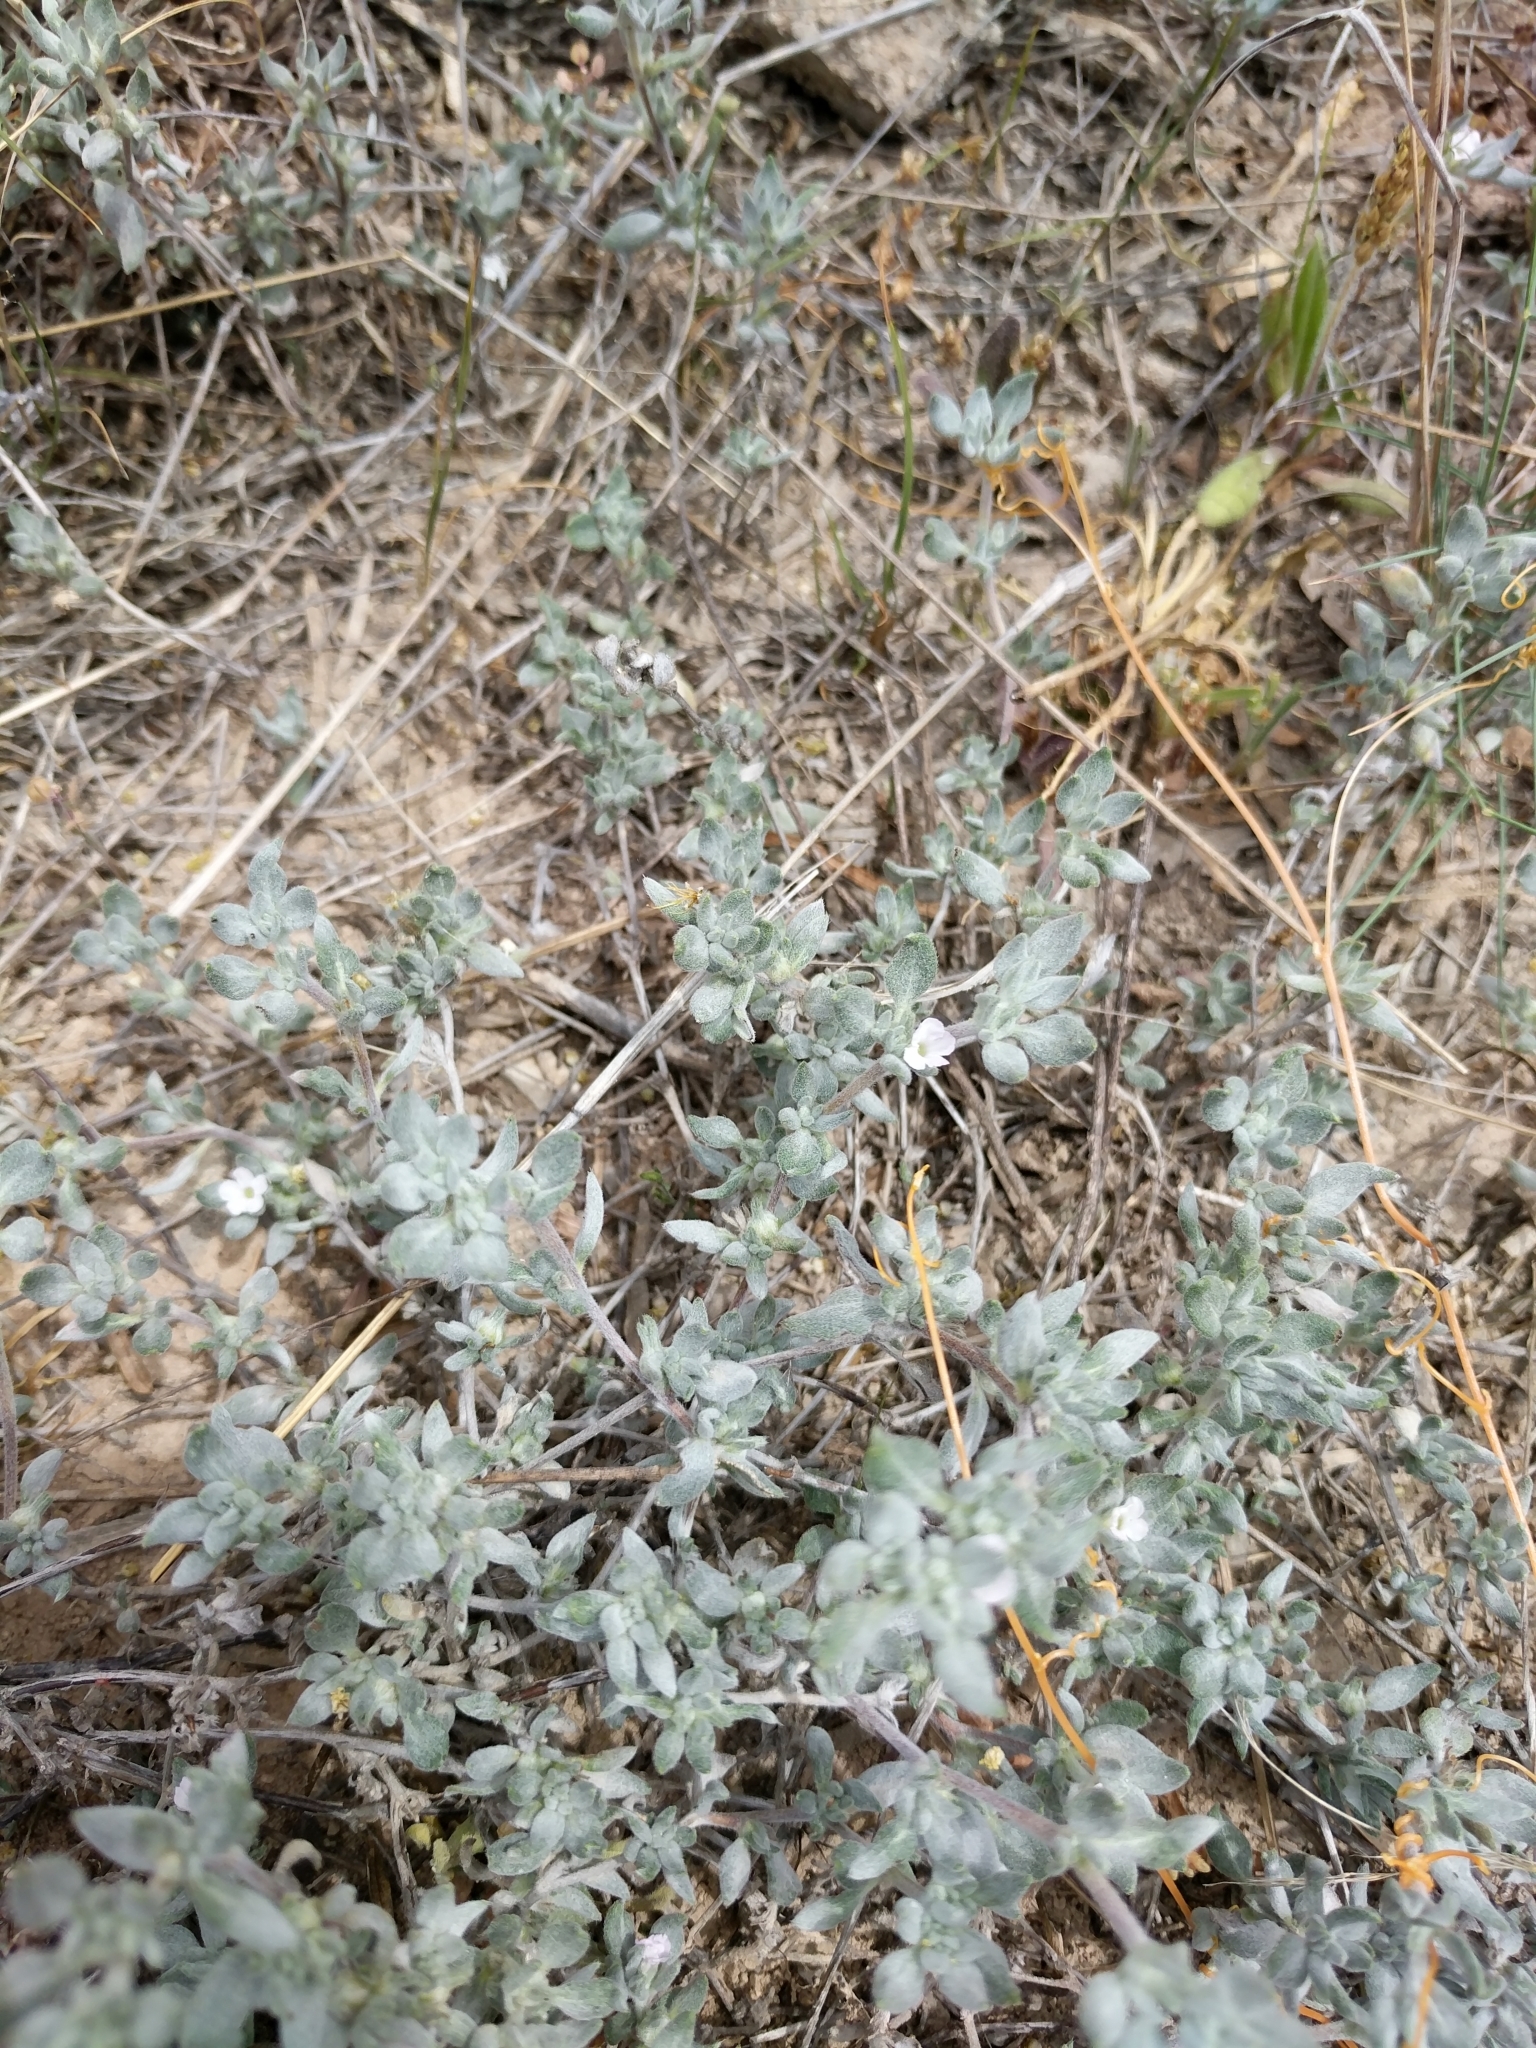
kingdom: Plantae
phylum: Tracheophyta
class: Magnoliopsida
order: Boraginales
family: Ehretiaceae
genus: Tiquilia
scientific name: Tiquilia canescens
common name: Hairy tiquilia
